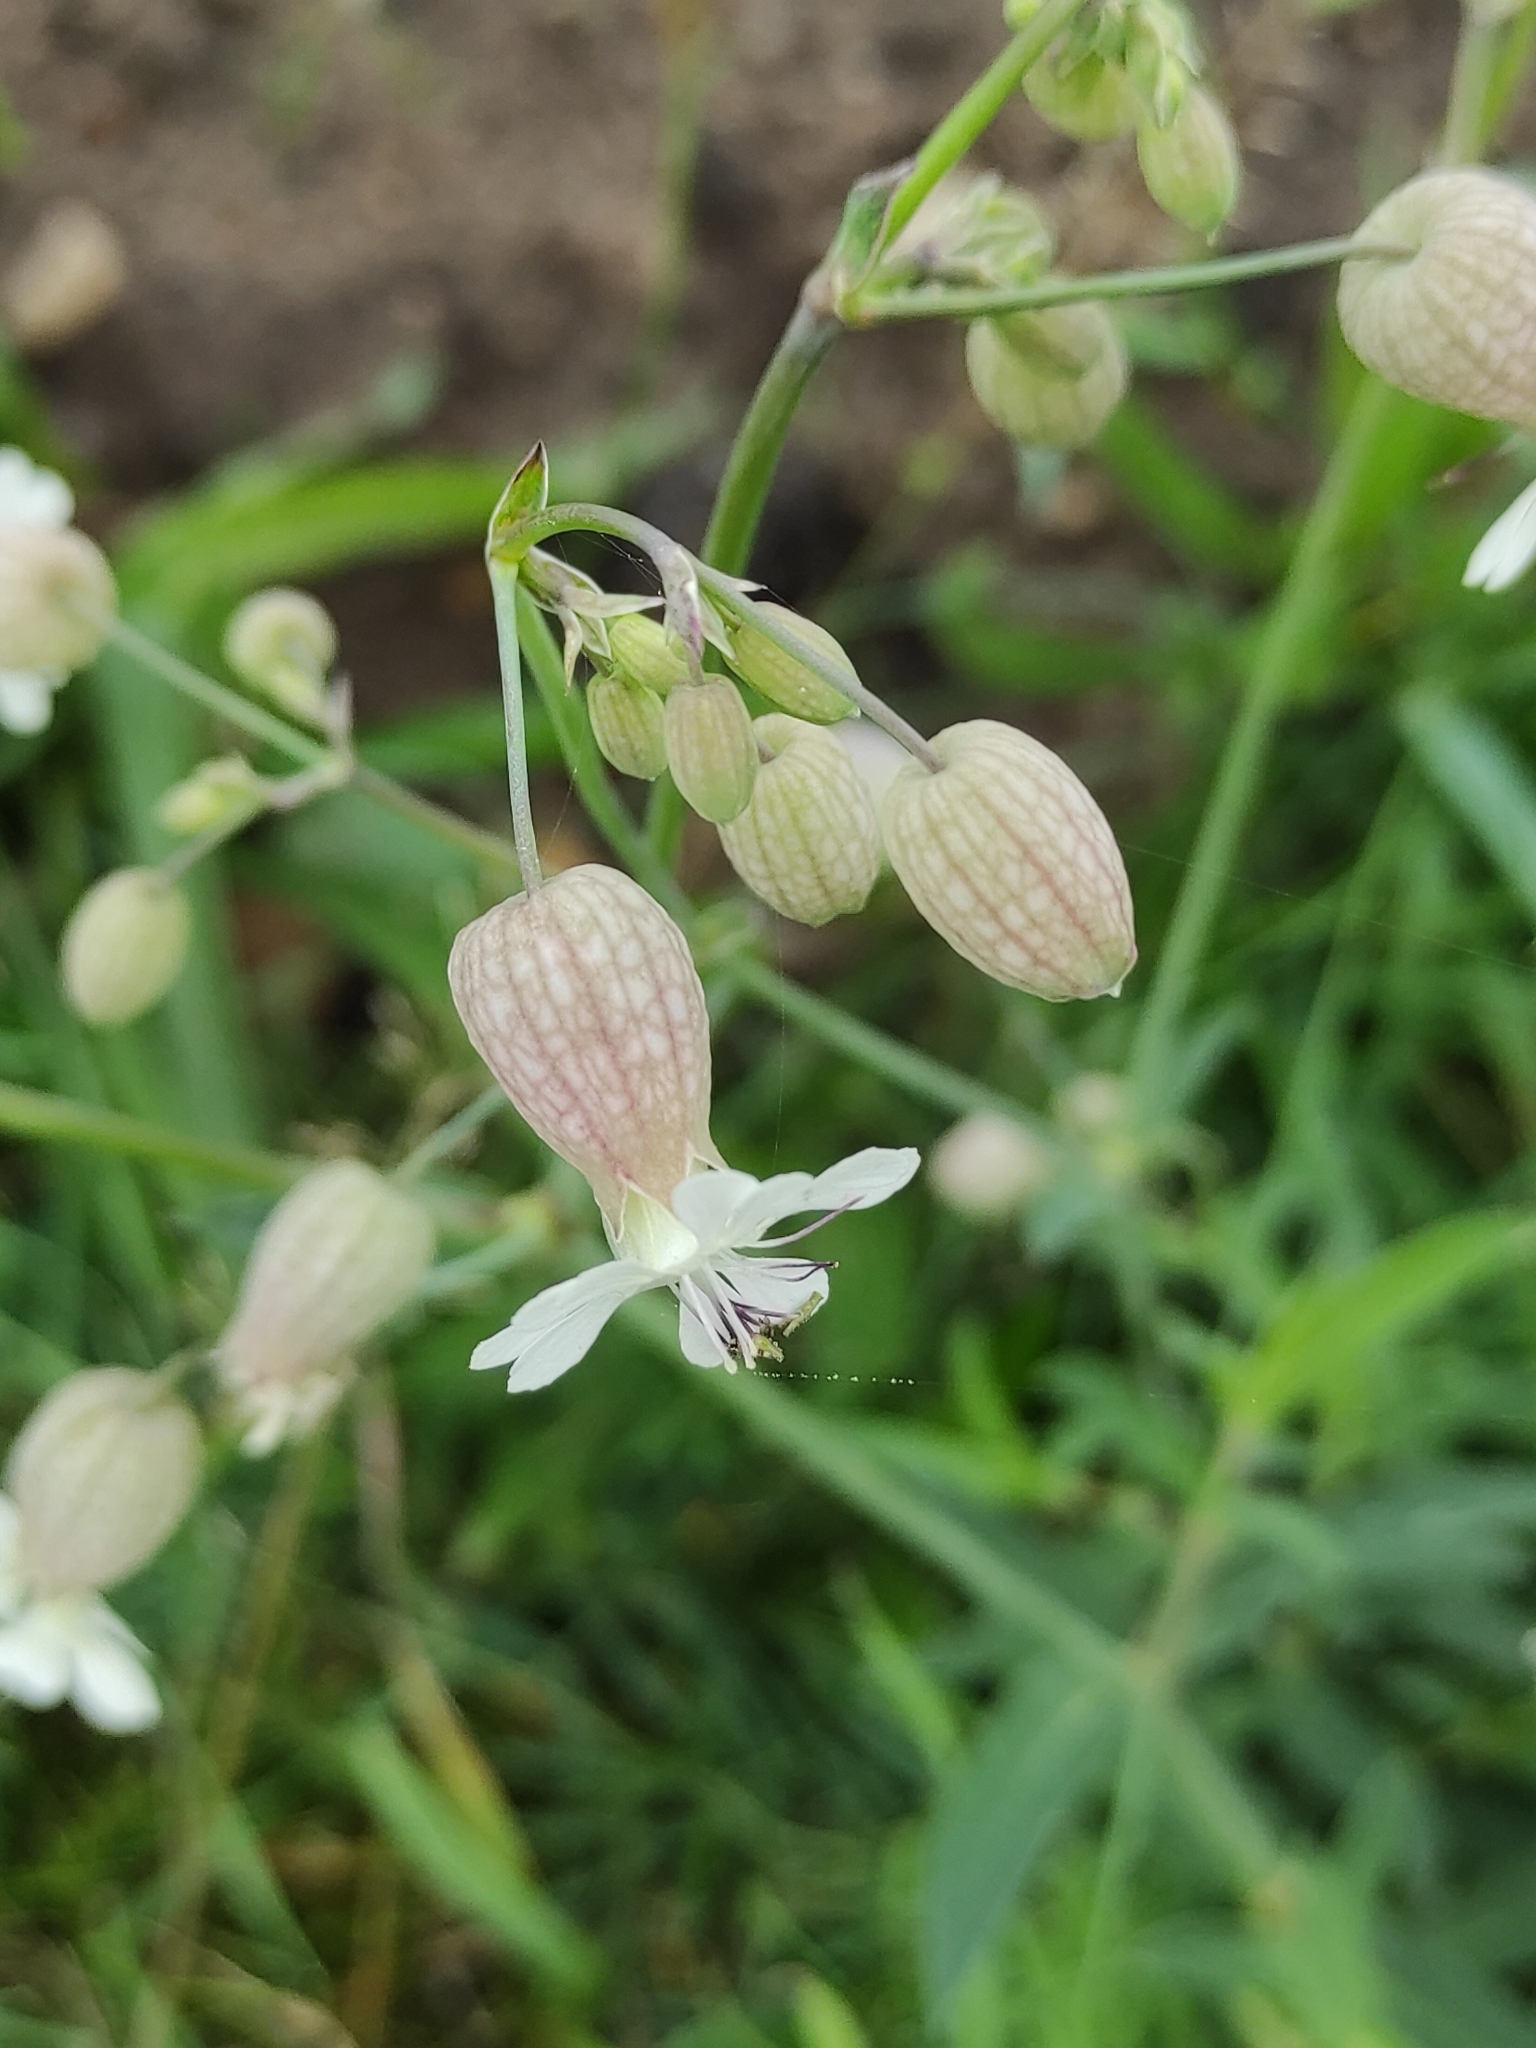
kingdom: Plantae
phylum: Tracheophyta
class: Magnoliopsida
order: Caryophyllales
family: Caryophyllaceae
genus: Silene
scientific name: Silene vulgaris
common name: Bladder campion
